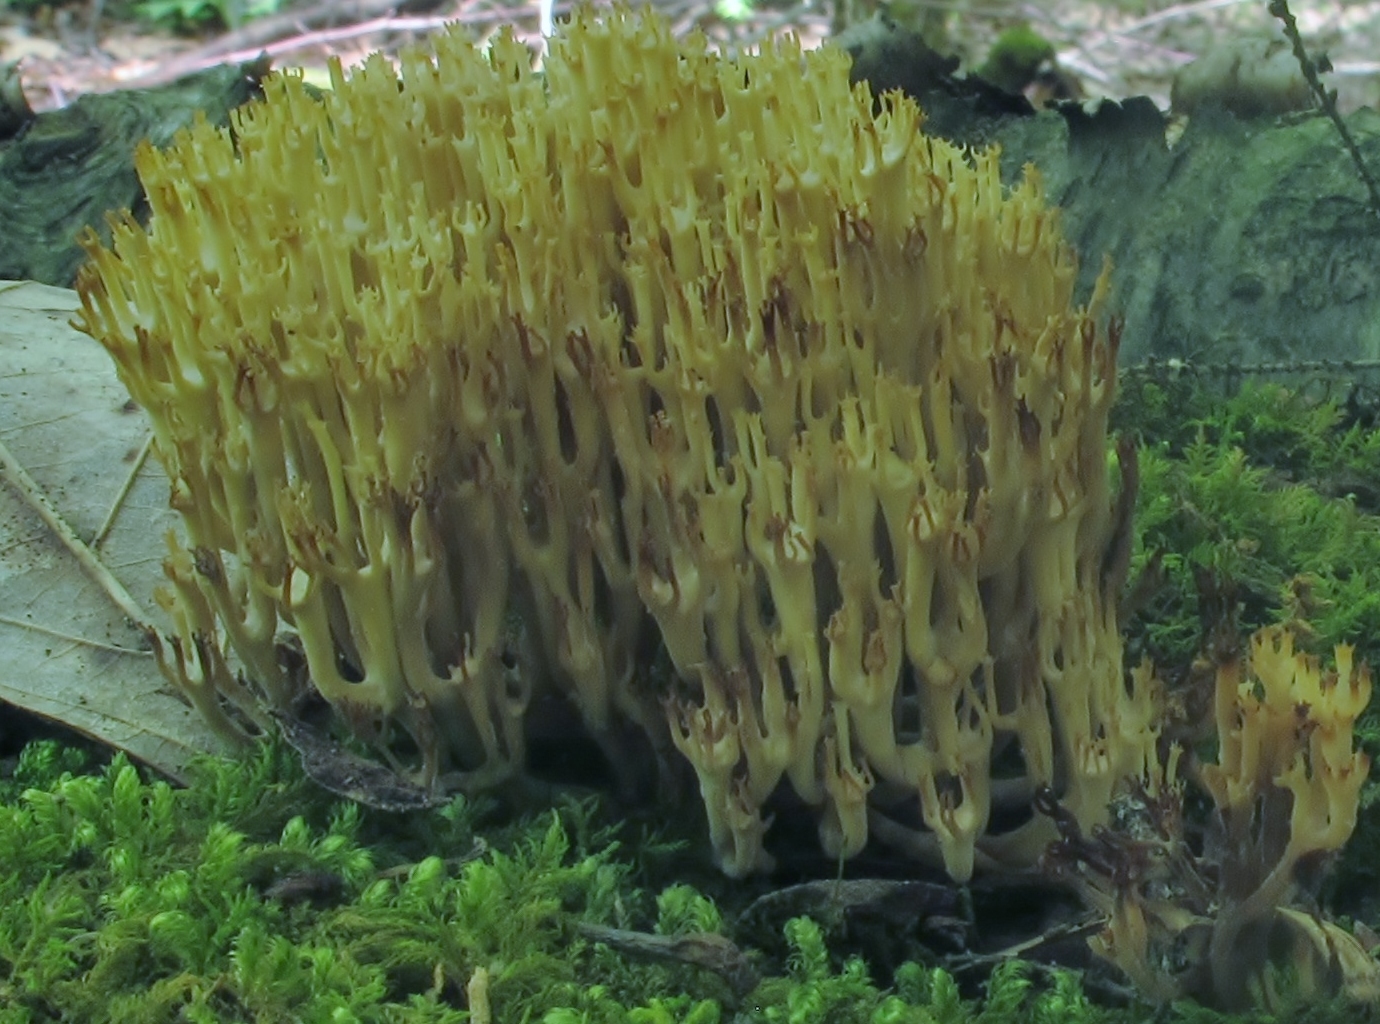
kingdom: Fungi
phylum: Basidiomycota
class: Agaricomycetes
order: Russulales
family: Auriscalpiaceae
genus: Artomyces
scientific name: Artomyces pyxidatus
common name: Crown-tipped coral fungus
